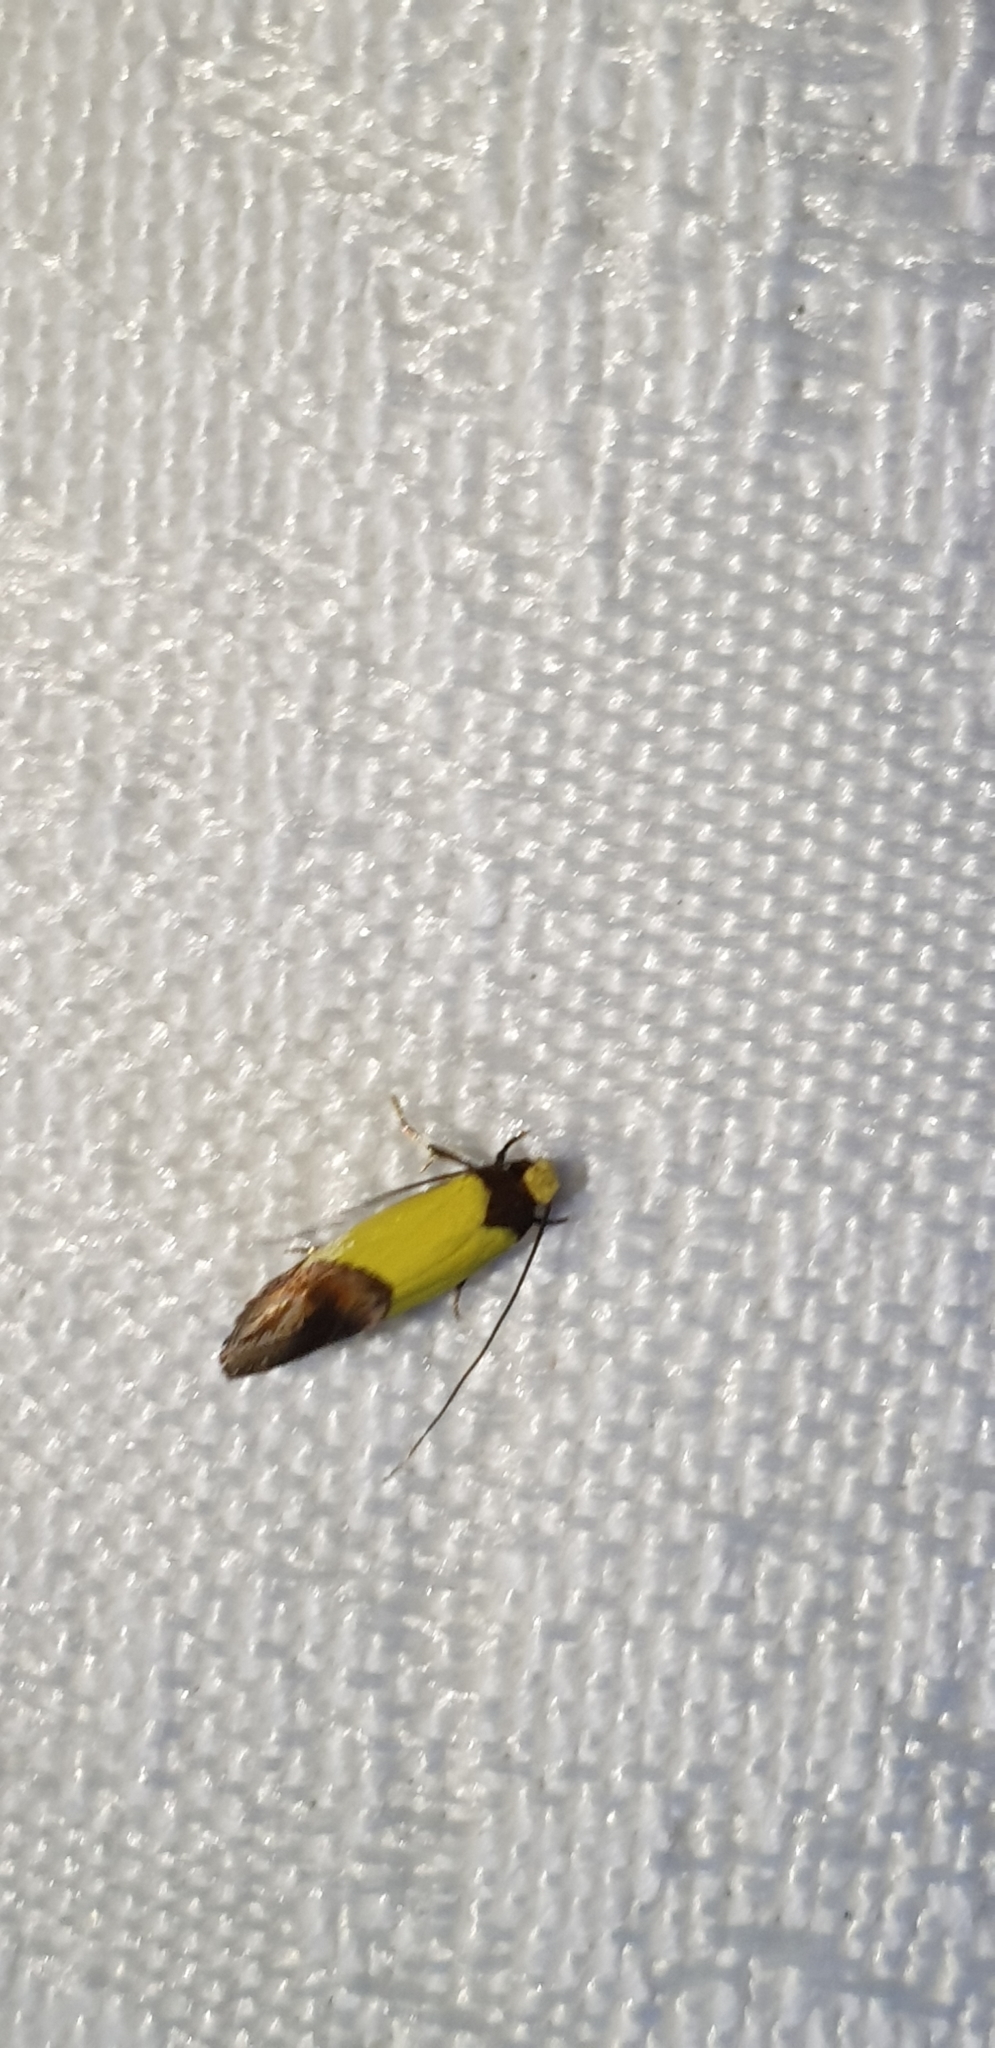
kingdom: Animalia
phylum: Arthropoda
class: Insecta
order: Lepidoptera
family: Tineidae
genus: Edosa
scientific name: Edosa xystidophora
